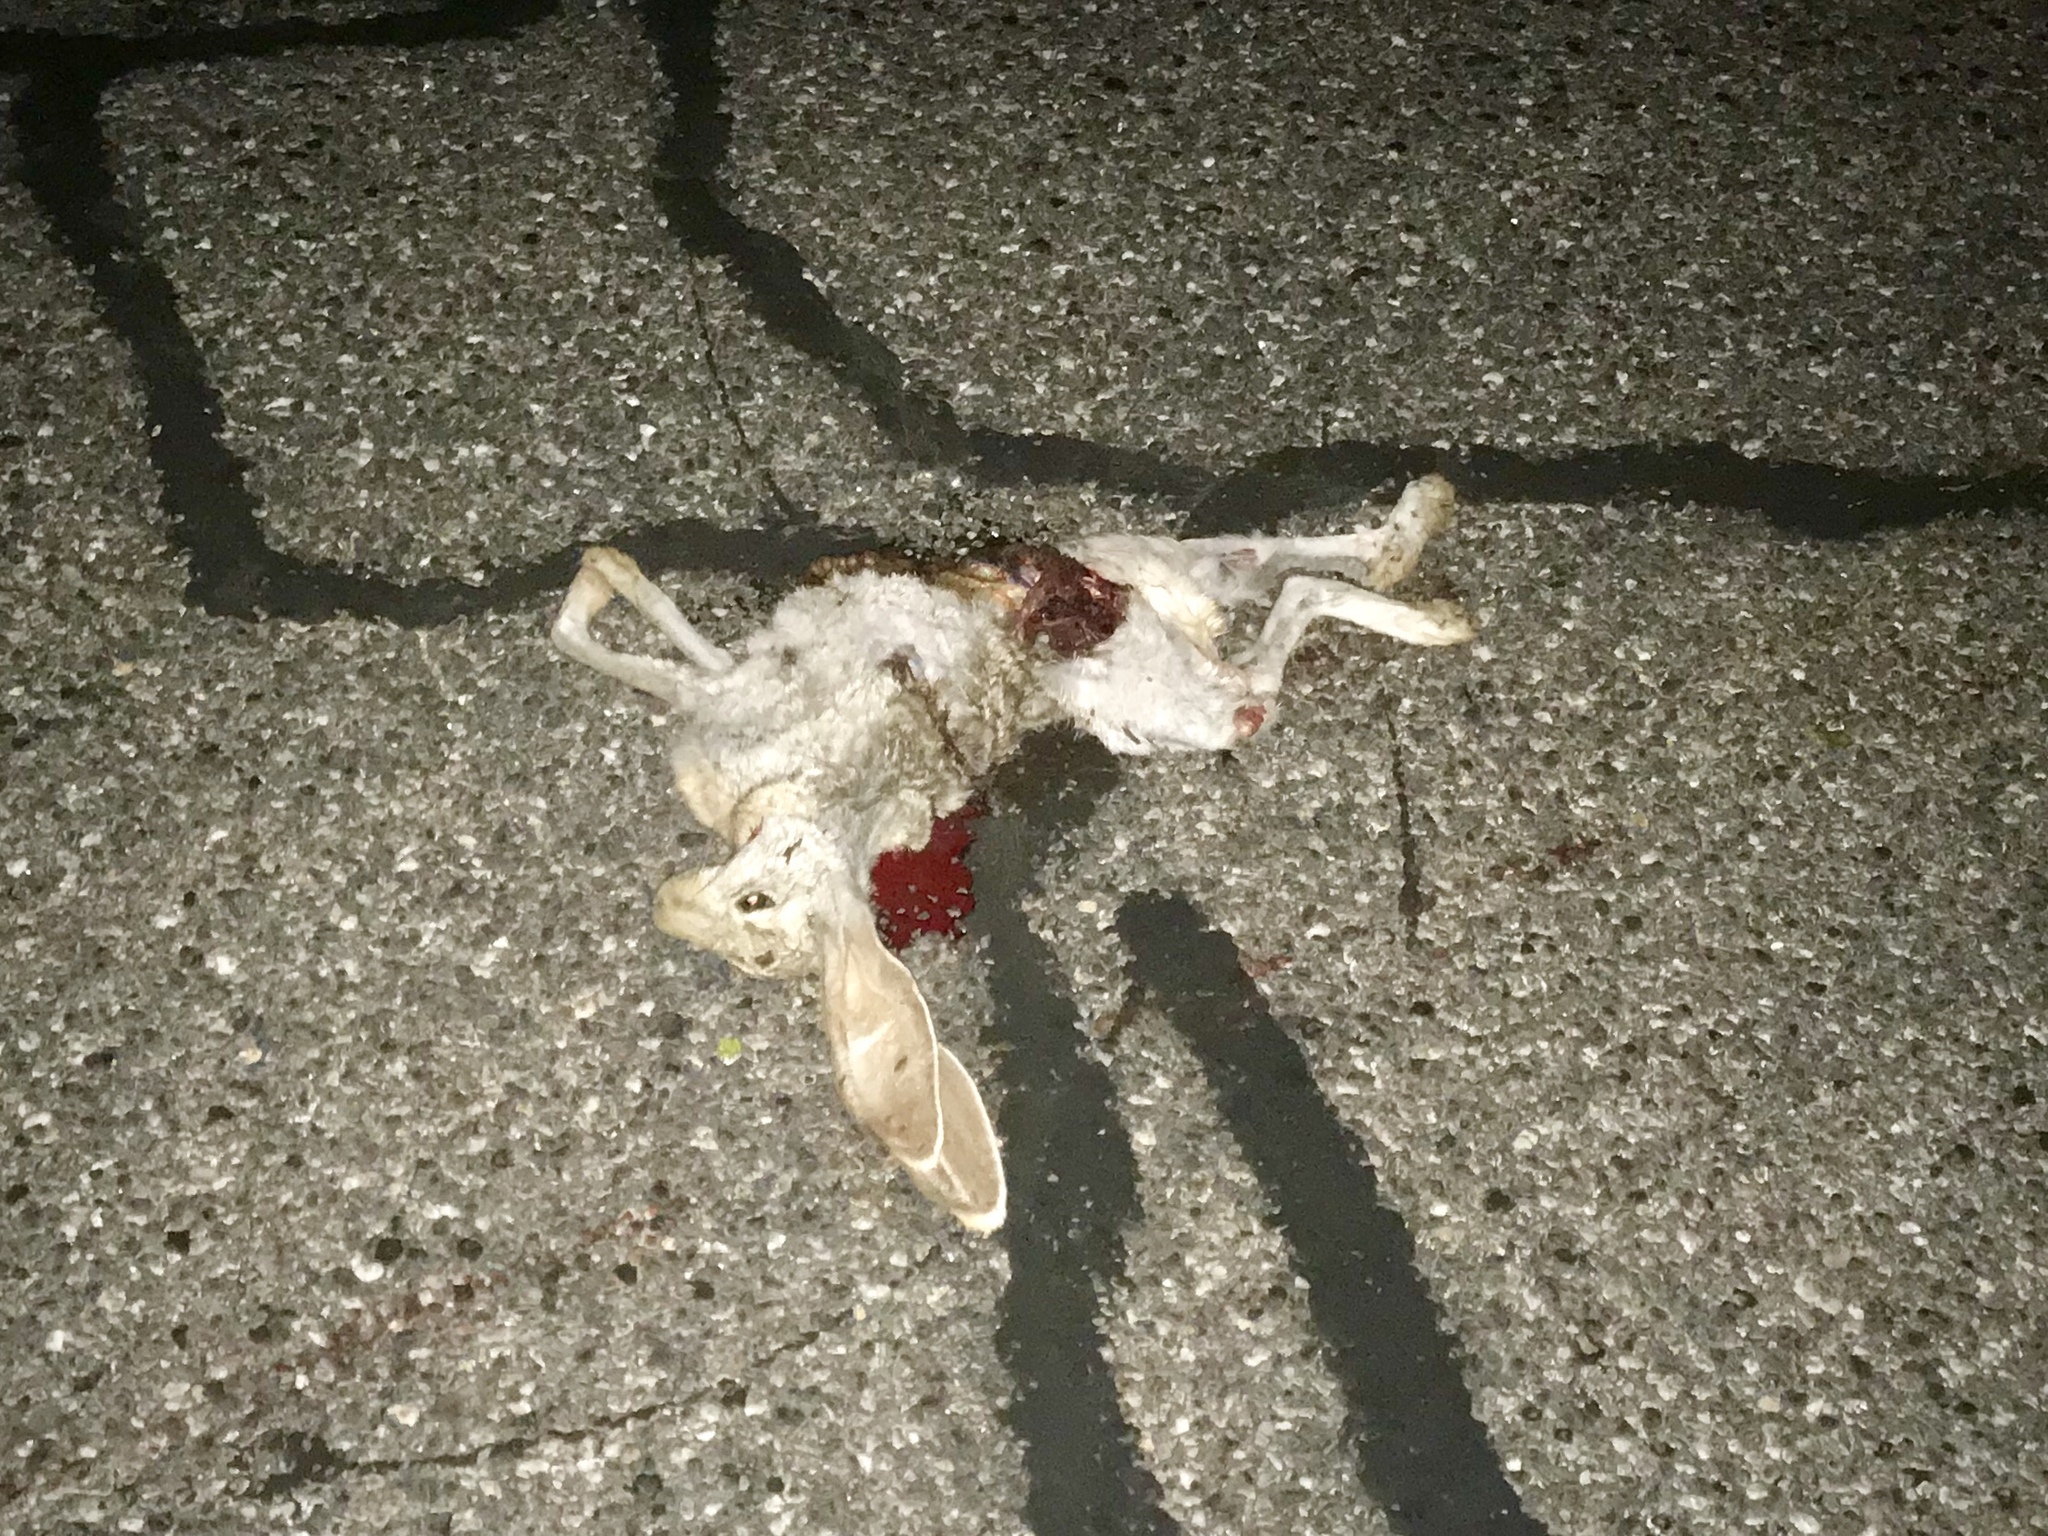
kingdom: Animalia
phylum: Chordata
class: Mammalia
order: Lagomorpha
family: Leporidae
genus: Lepus
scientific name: Lepus californicus
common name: Black-tailed jackrabbit
